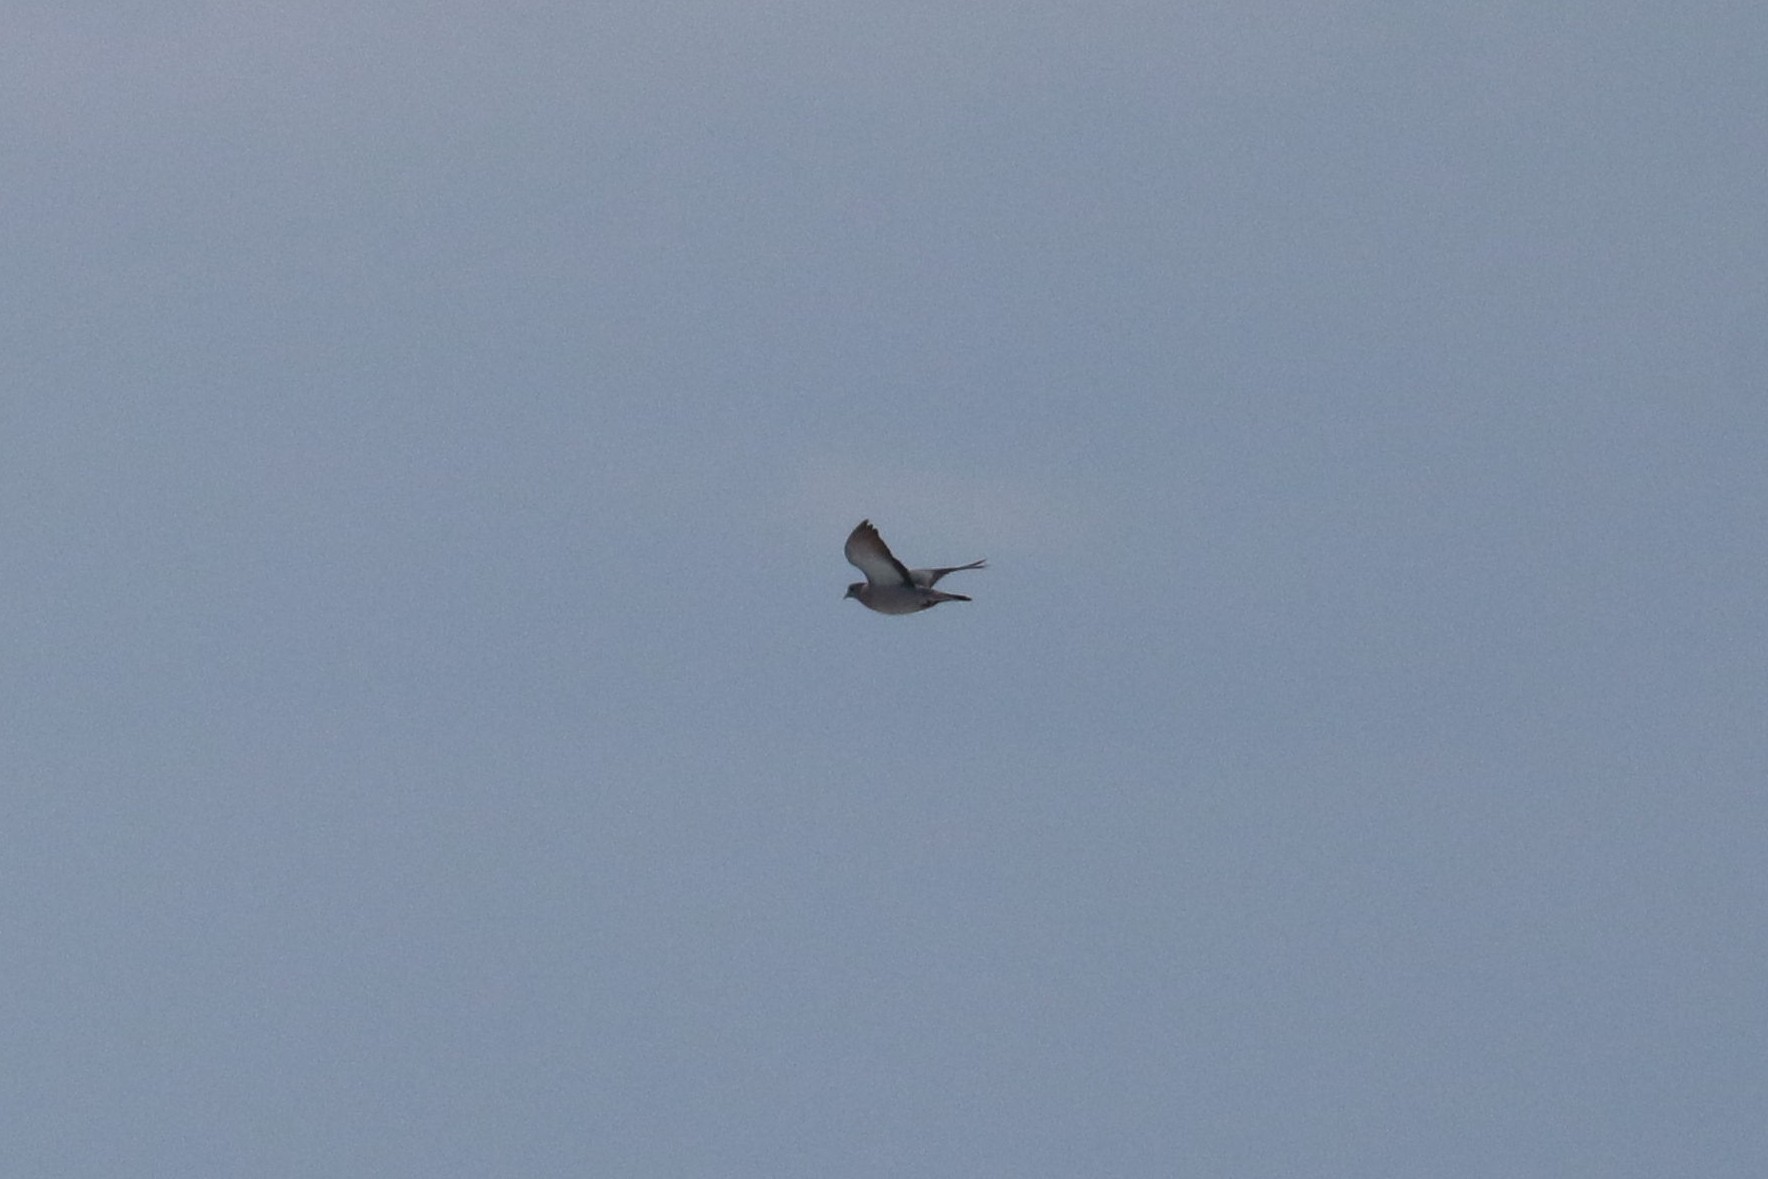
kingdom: Animalia
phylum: Chordata
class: Aves
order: Columbiformes
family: Columbidae
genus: Columba
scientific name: Columba oenas
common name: Stock dove
